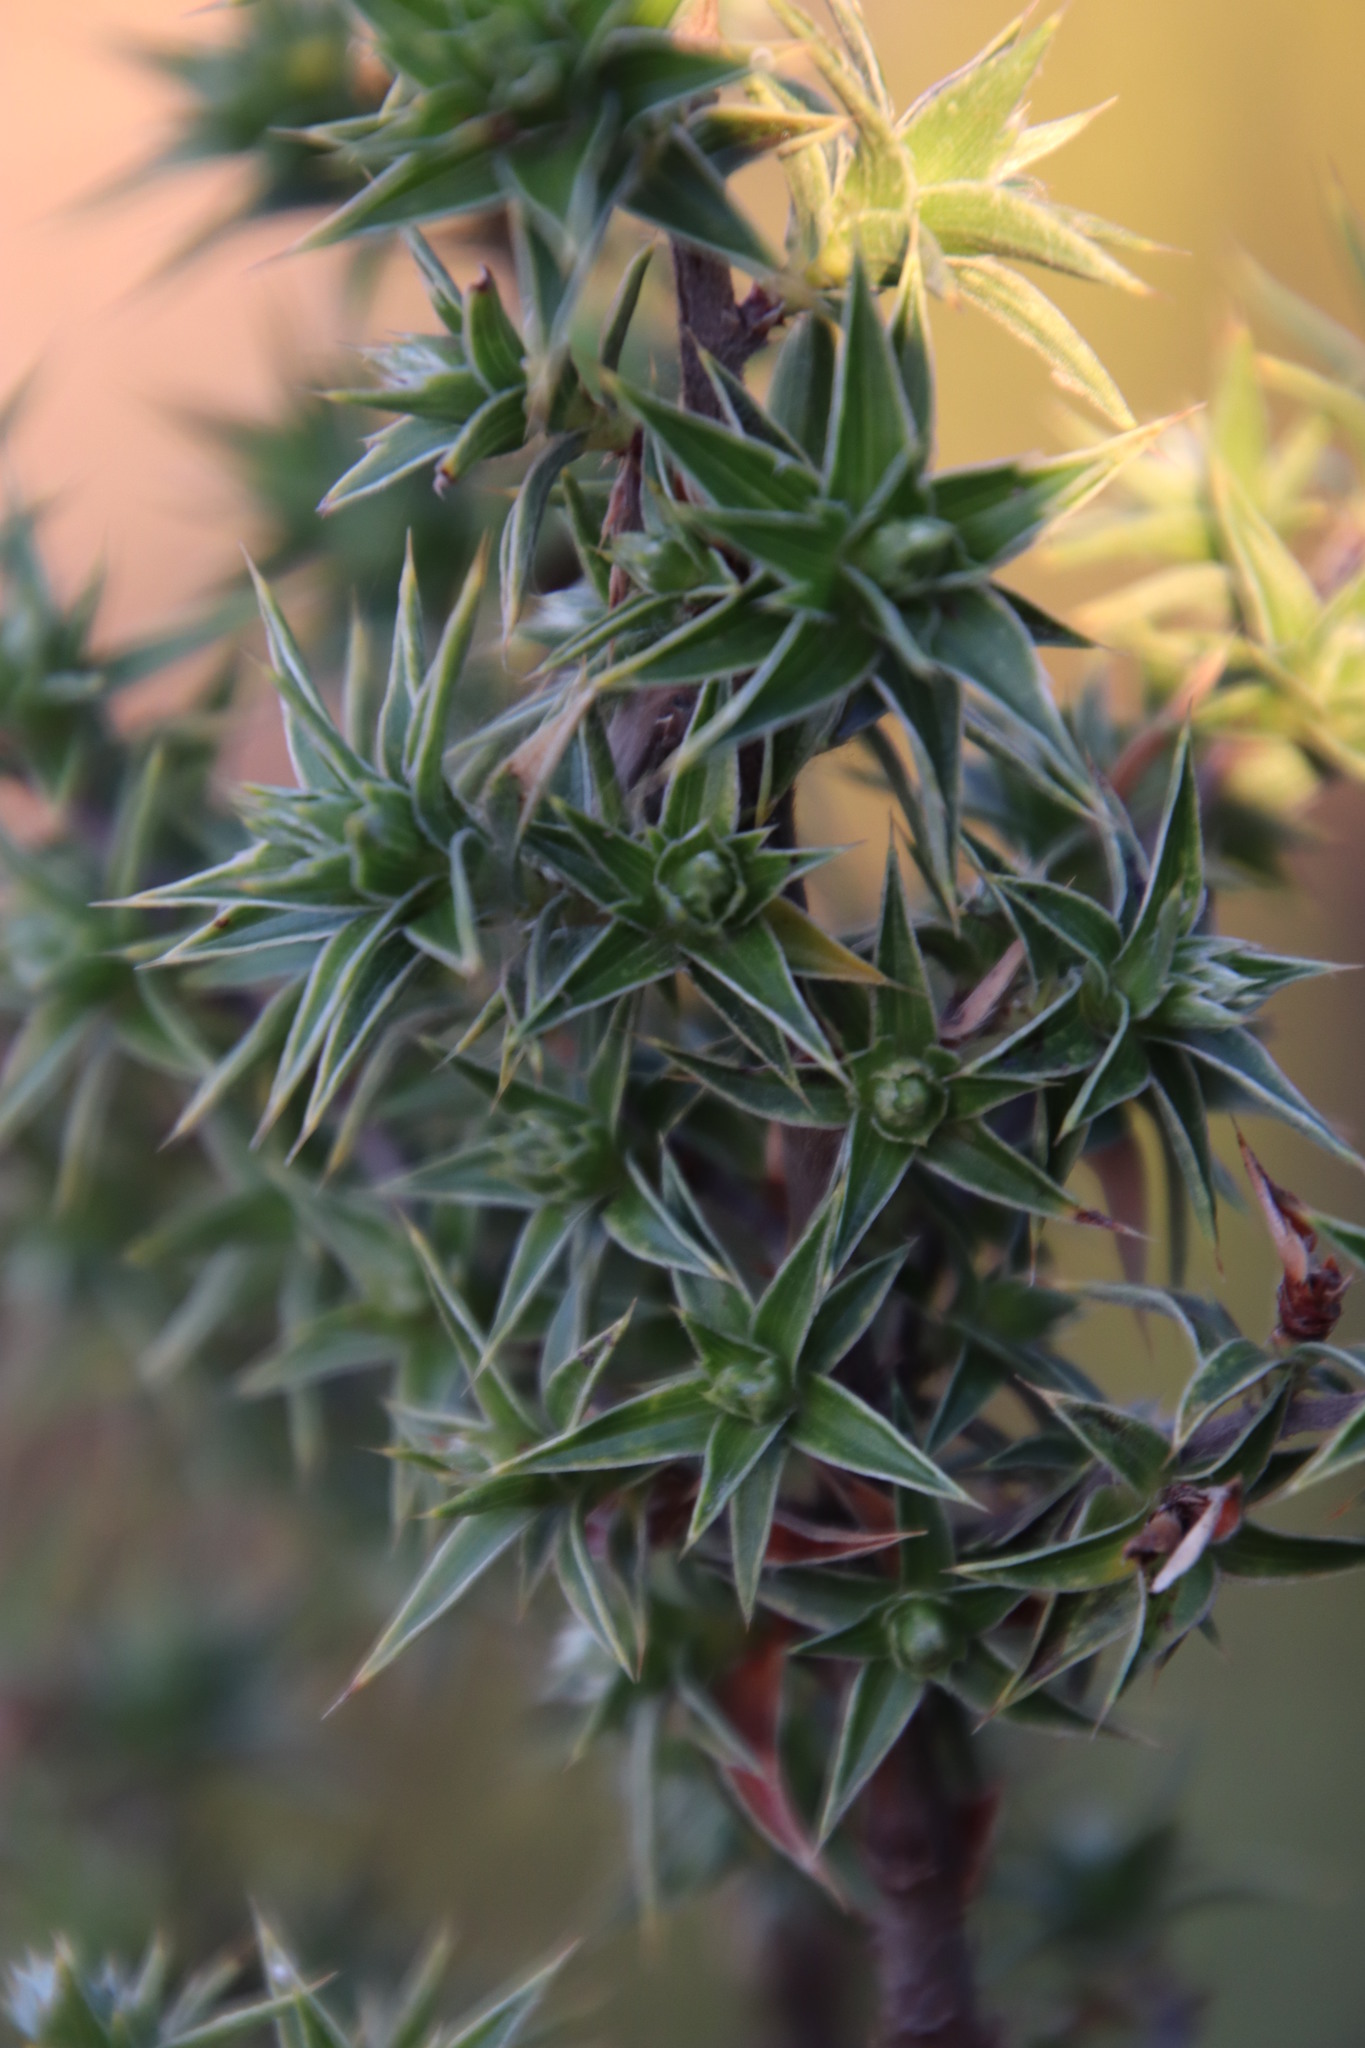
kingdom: Plantae
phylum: Tracheophyta
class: Magnoliopsida
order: Rosales
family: Rosaceae
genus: Cliffortia
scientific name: Cliffortia ruscifolia
